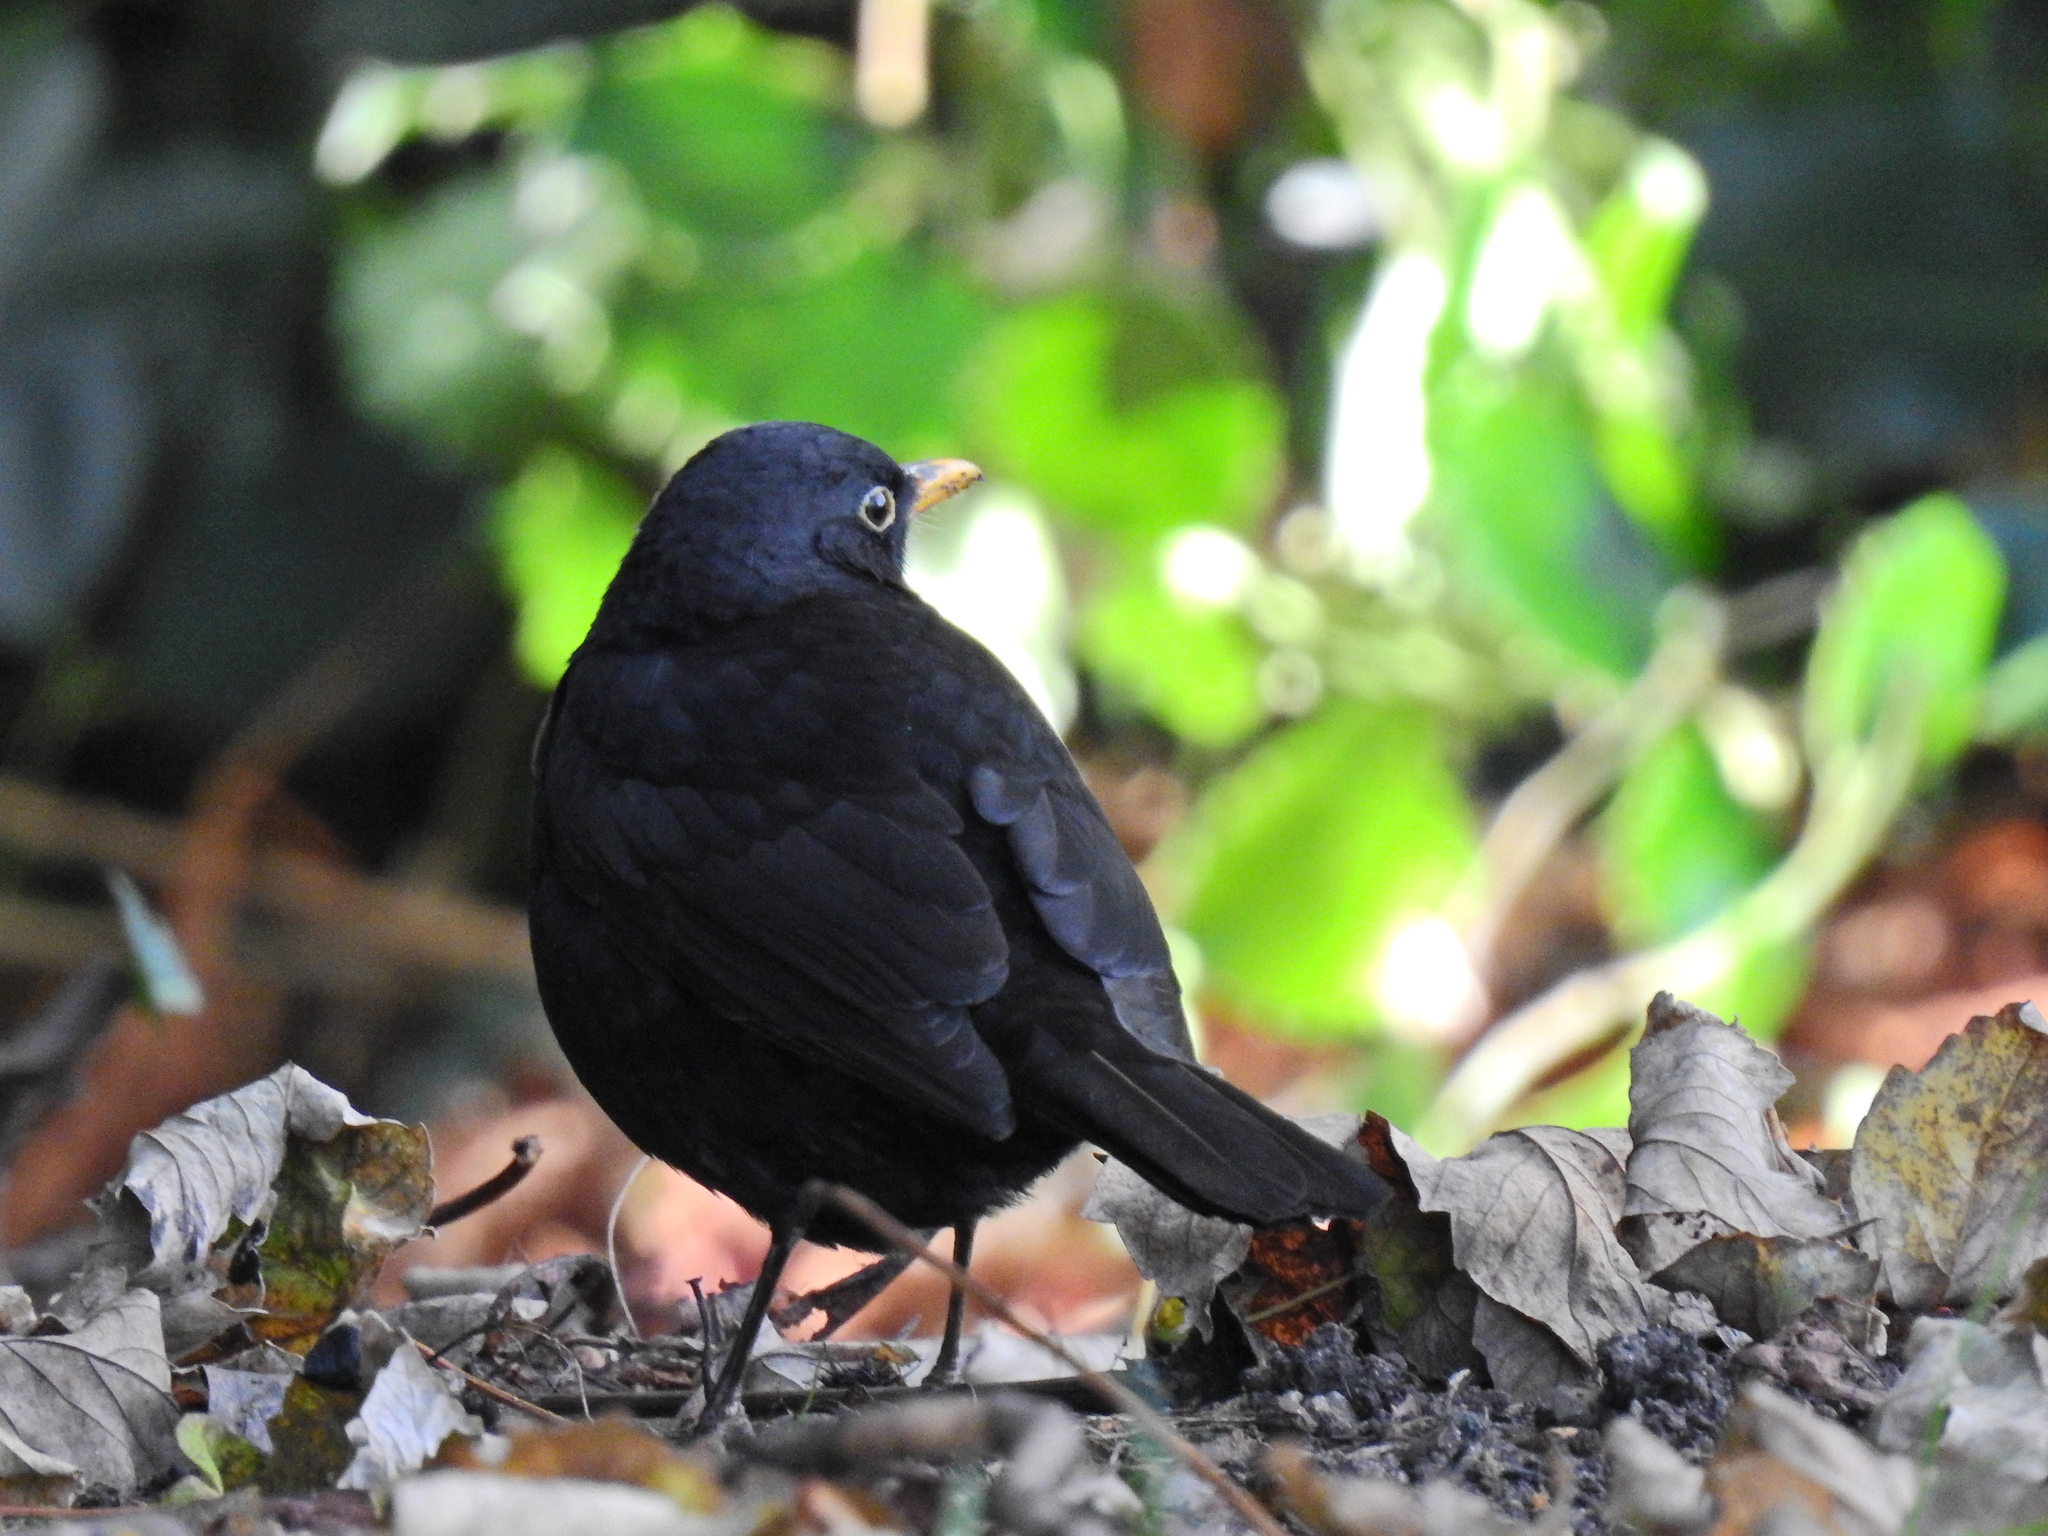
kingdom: Animalia
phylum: Chordata
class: Aves
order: Passeriformes
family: Turdidae
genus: Turdus
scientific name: Turdus merula
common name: Common blackbird
